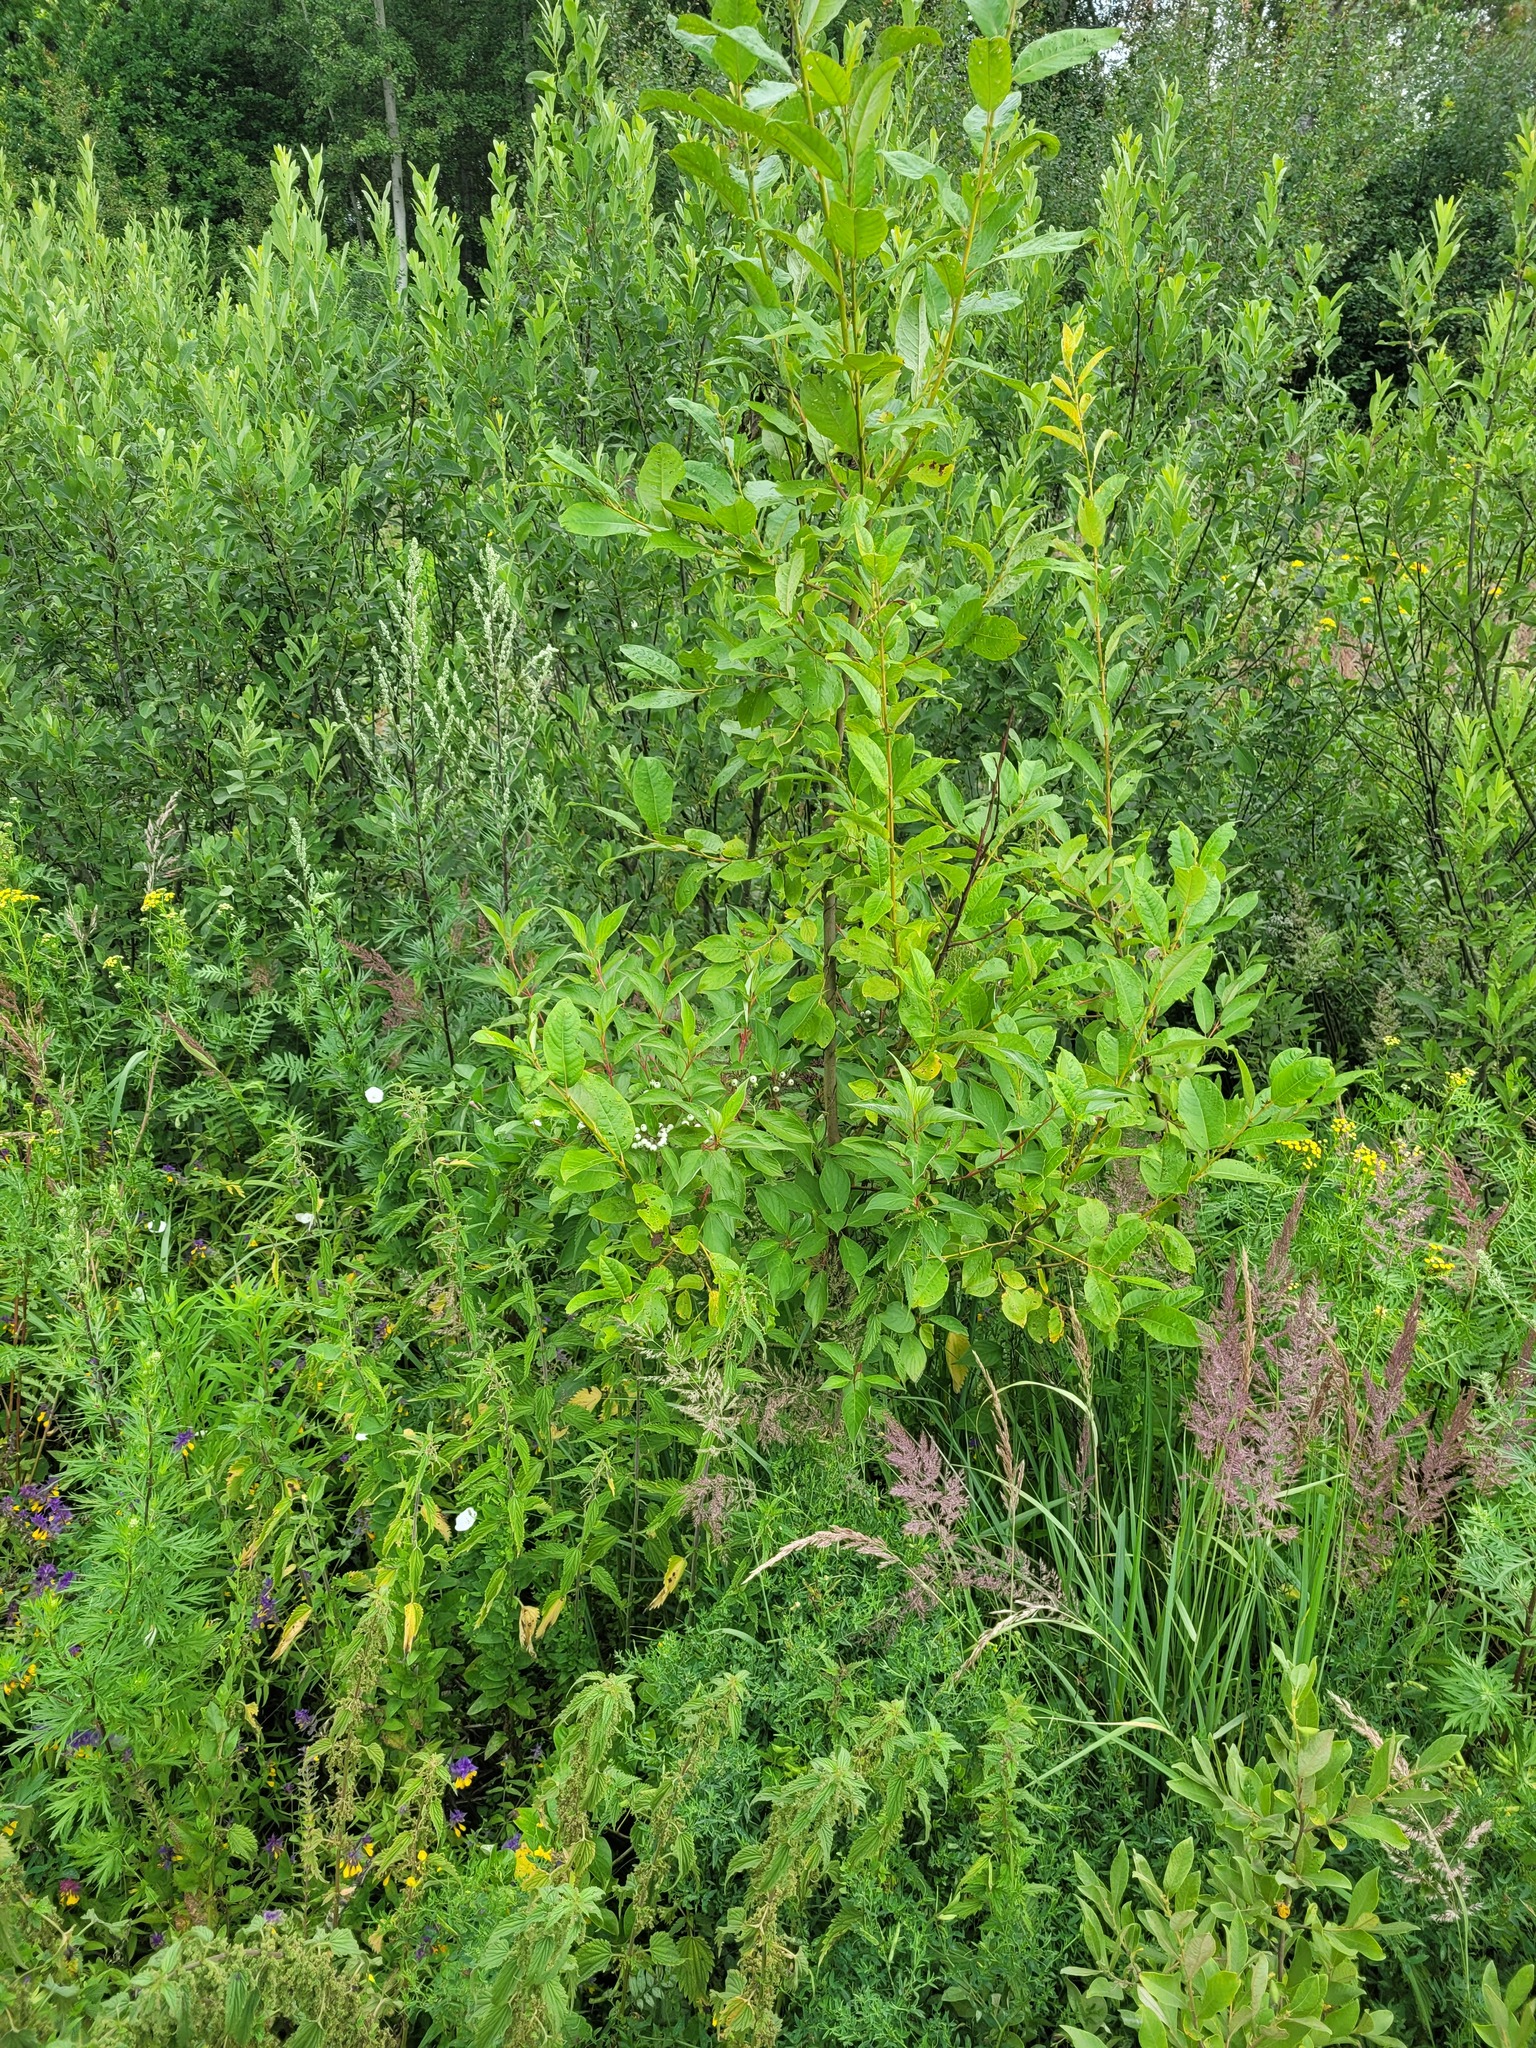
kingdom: Plantae
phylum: Tracheophyta
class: Magnoliopsida
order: Cornales
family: Cornaceae
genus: Cornus
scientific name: Cornus alba
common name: White dogwood
